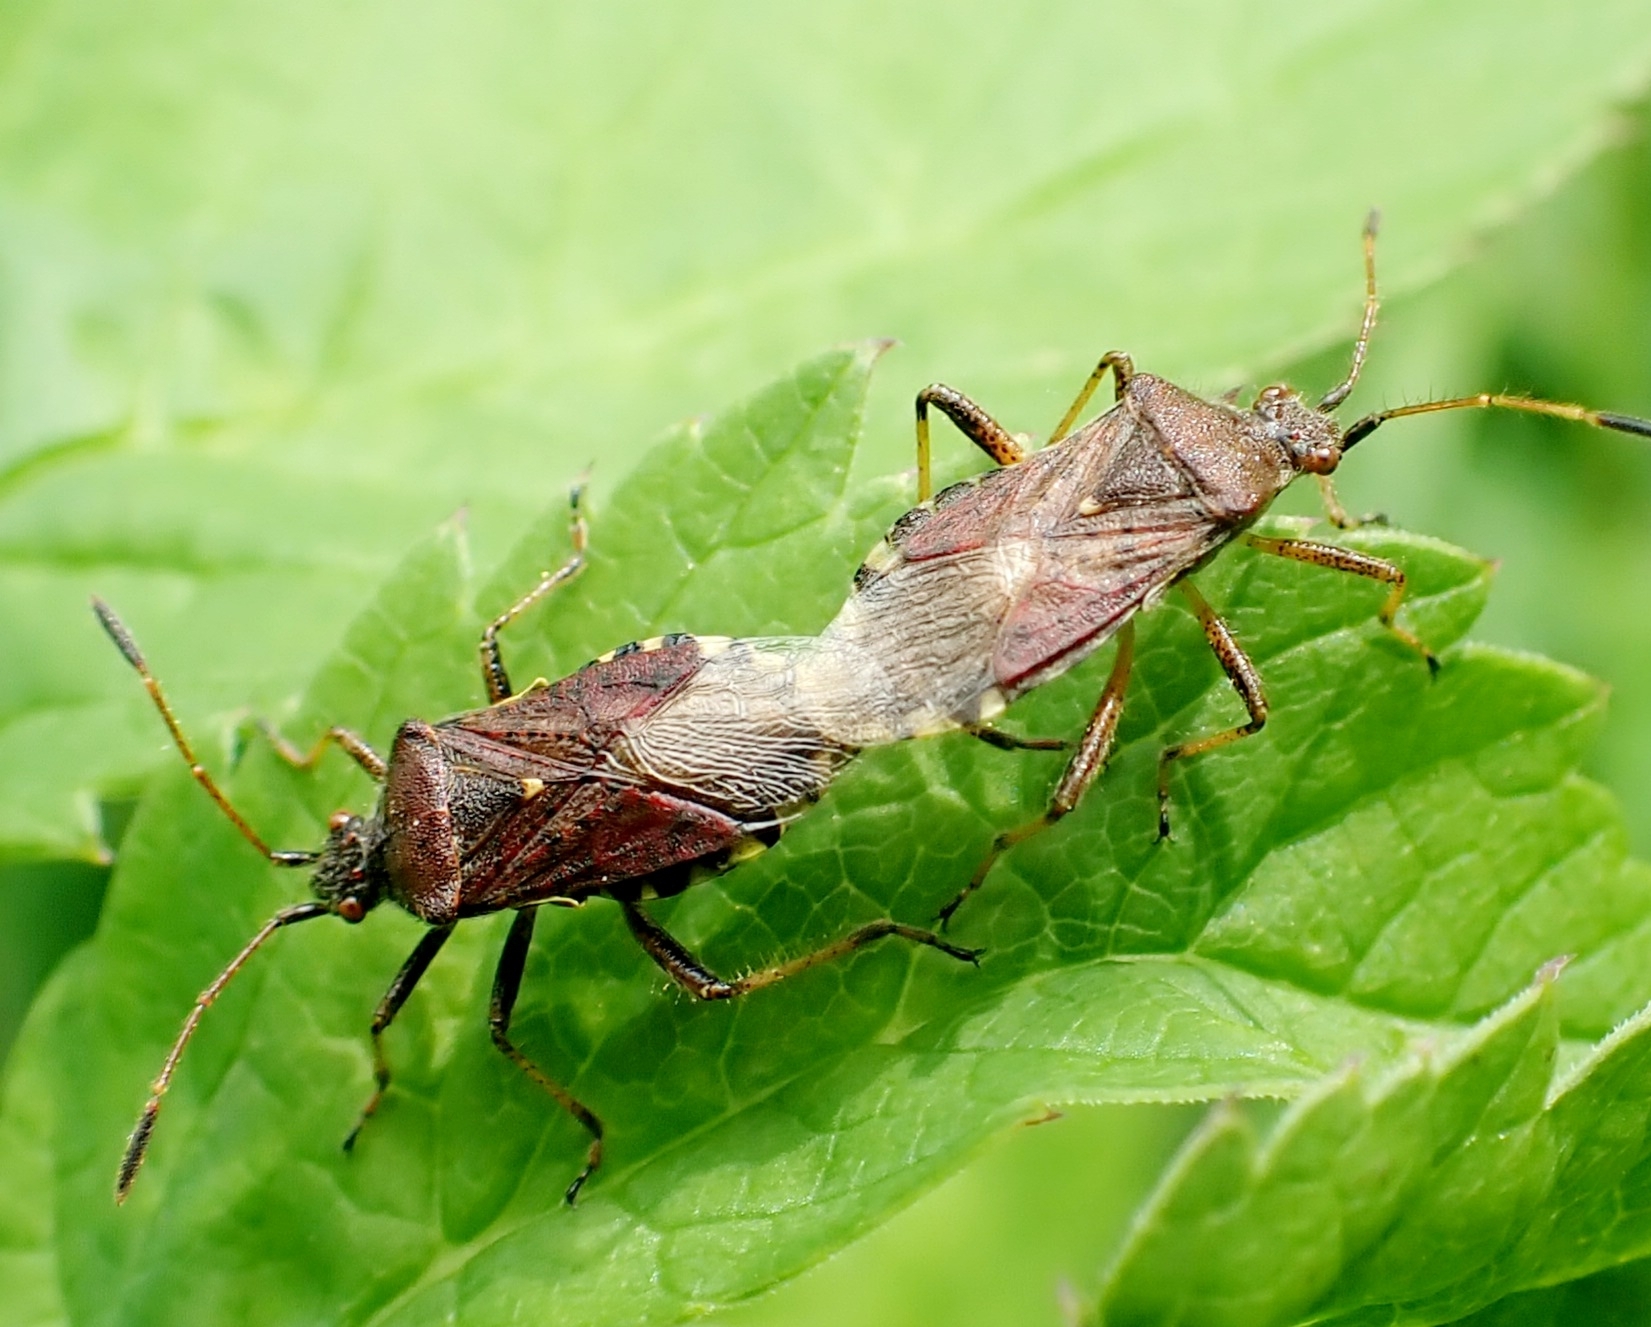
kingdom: Animalia
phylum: Arthropoda
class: Insecta
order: Hemiptera
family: Rhopalidae
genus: Rhopalus
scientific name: Rhopalus latus
